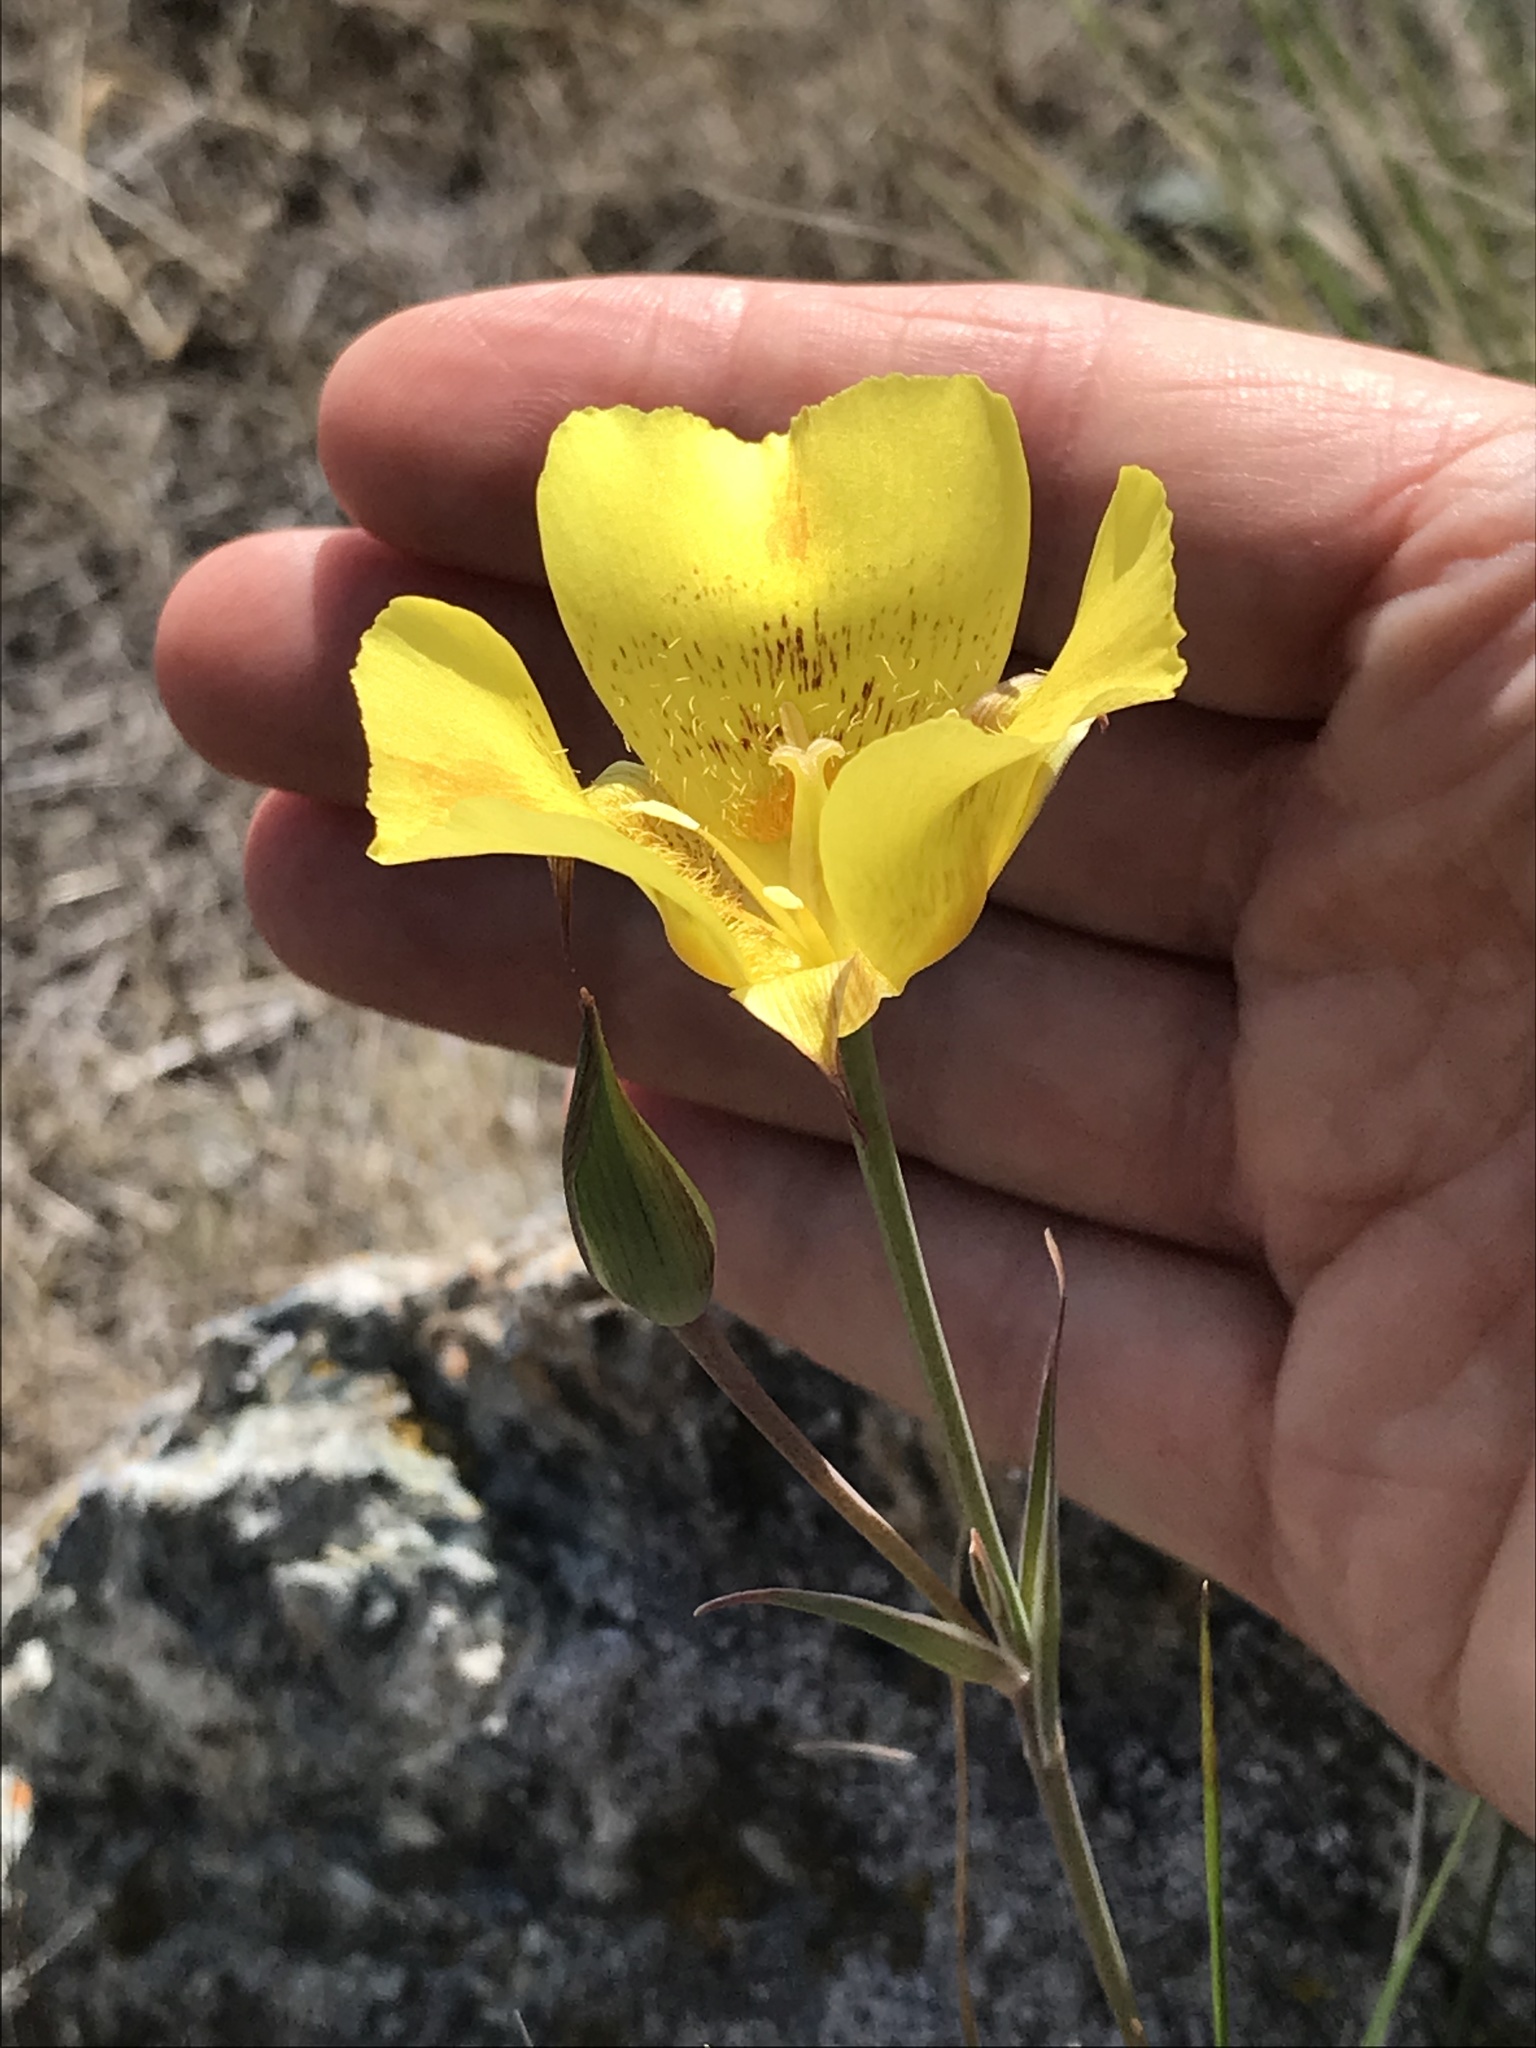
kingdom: Plantae
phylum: Tracheophyta
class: Liliopsida
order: Liliales
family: Liliaceae
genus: Calochortus
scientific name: Calochortus luteus
